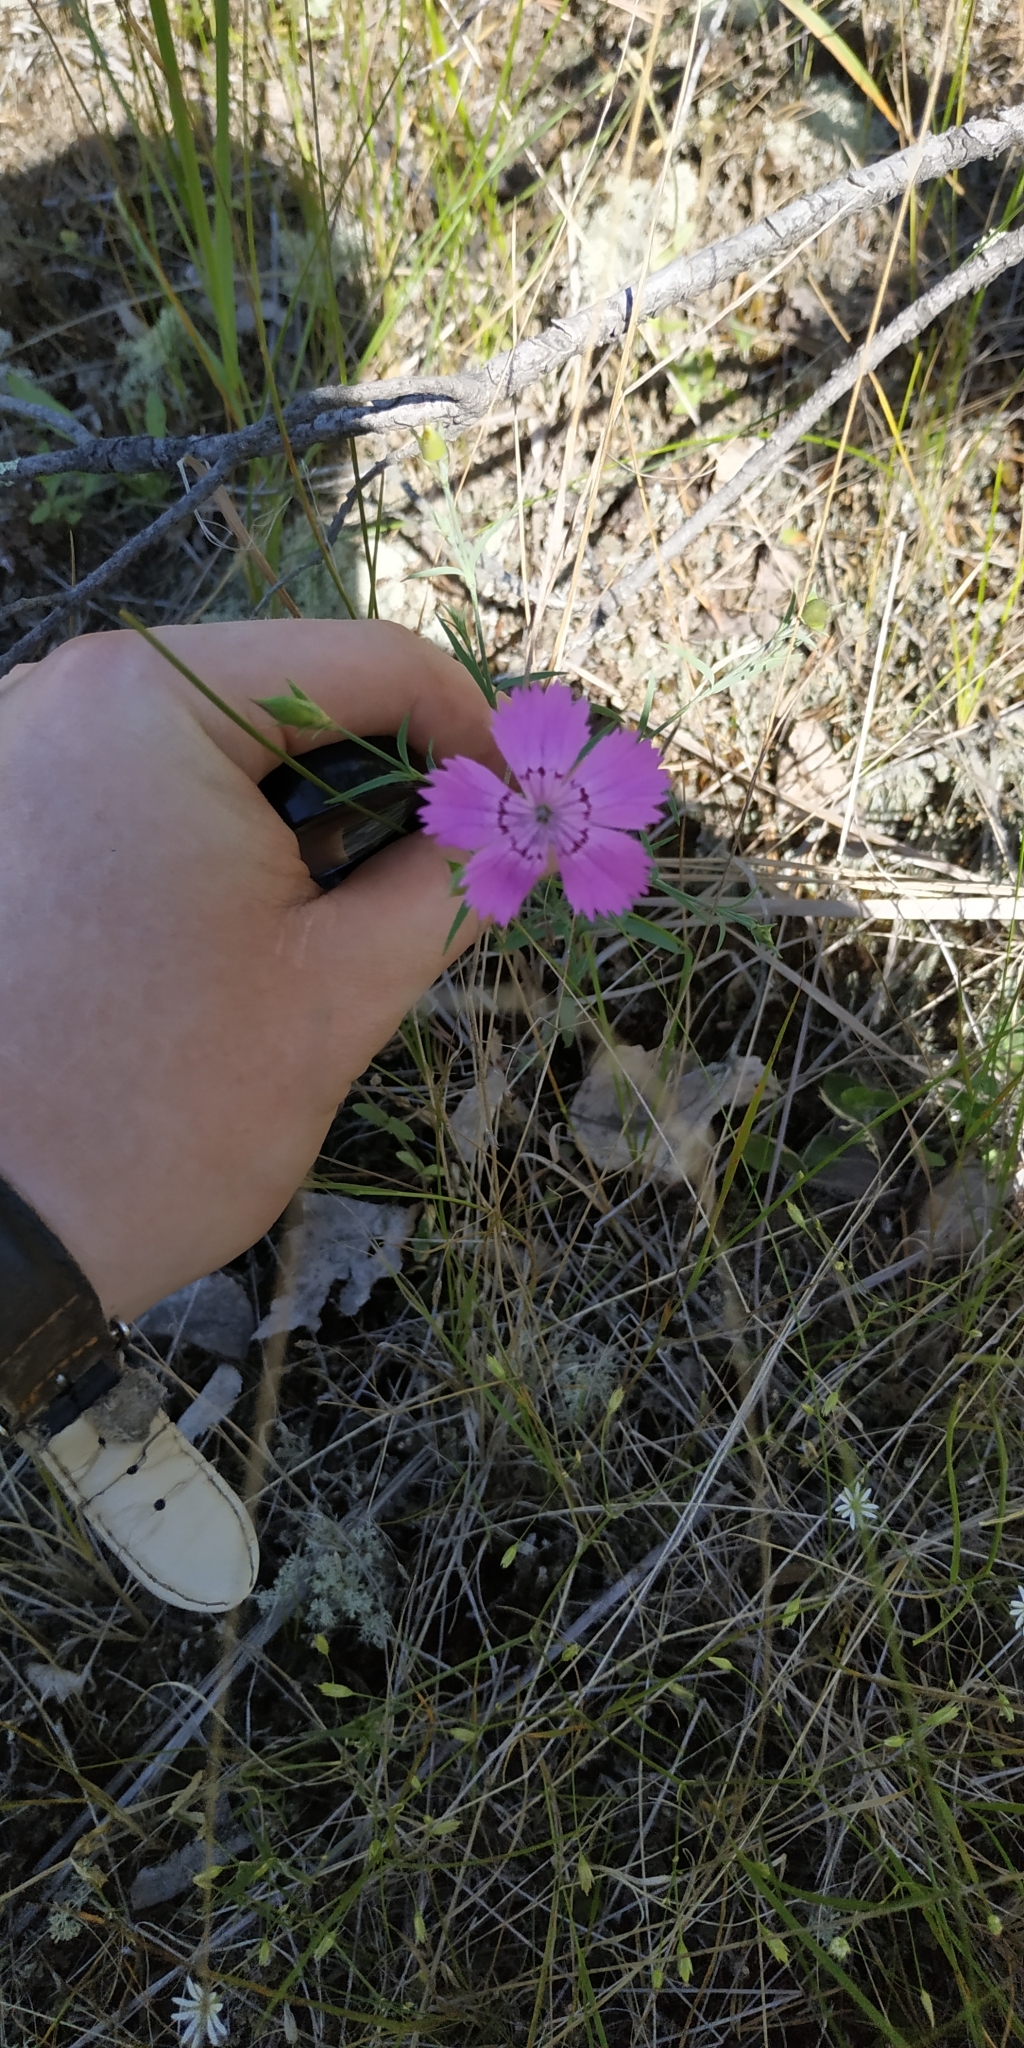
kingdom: Plantae
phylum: Tracheophyta
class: Magnoliopsida
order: Caryophyllales
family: Caryophyllaceae
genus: Dianthus
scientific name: Dianthus chinensis
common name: Rainbow pink
